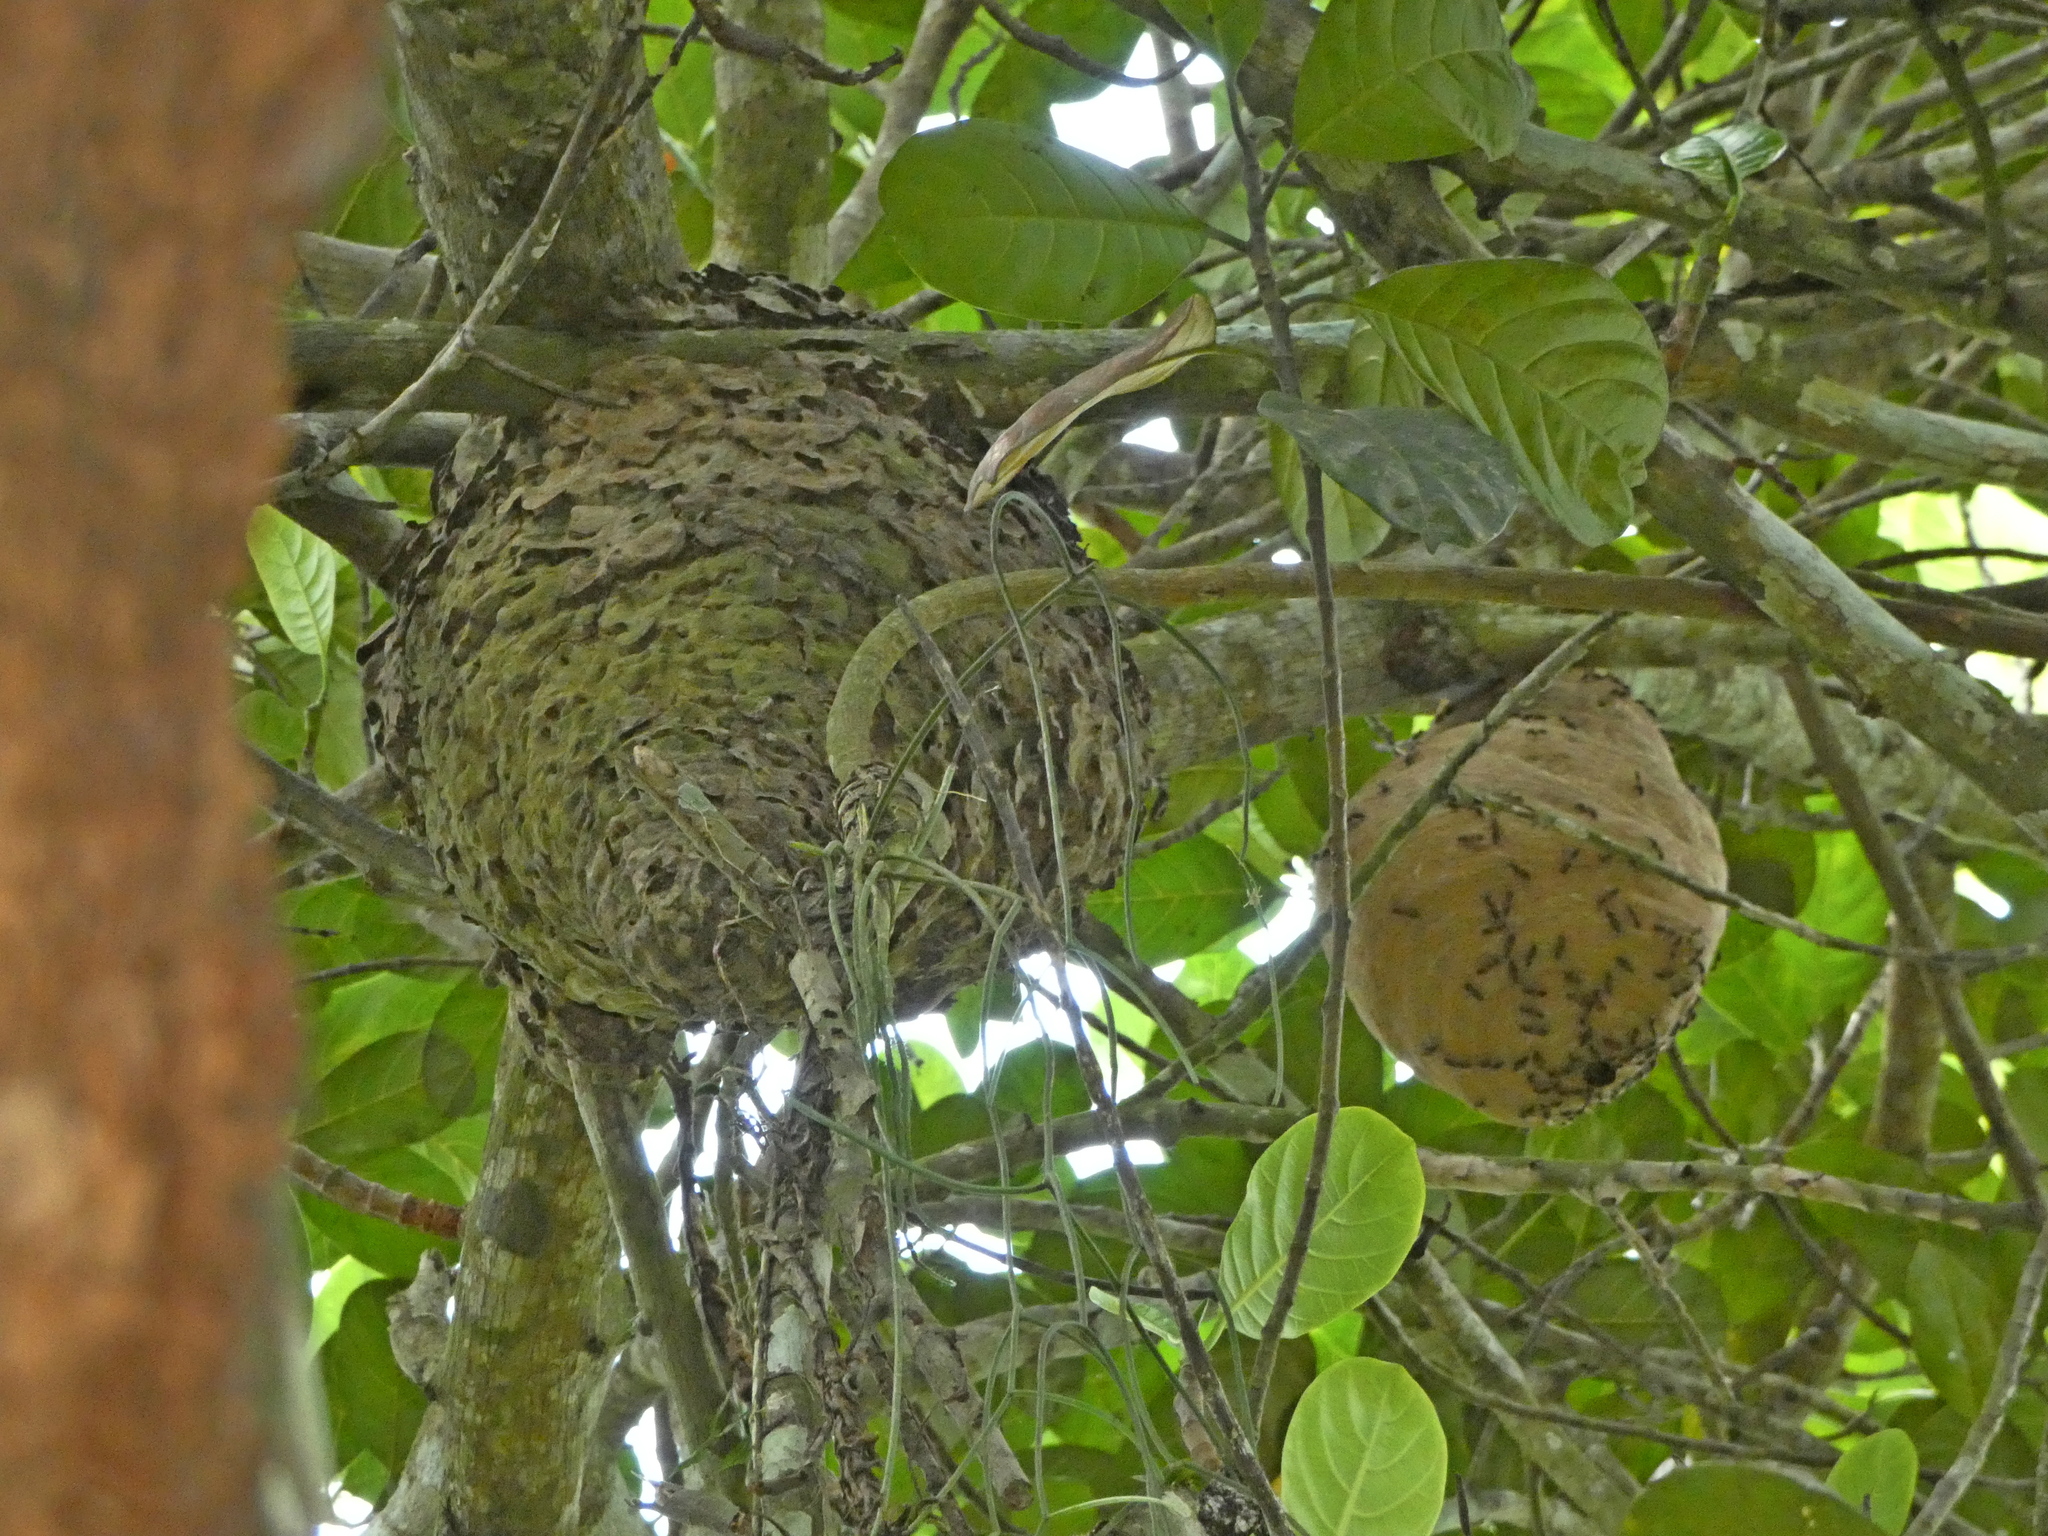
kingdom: Animalia
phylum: Arthropoda
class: Insecta
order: Hymenoptera
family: Eumenidae
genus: Polybia
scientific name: Polybia rejecta
